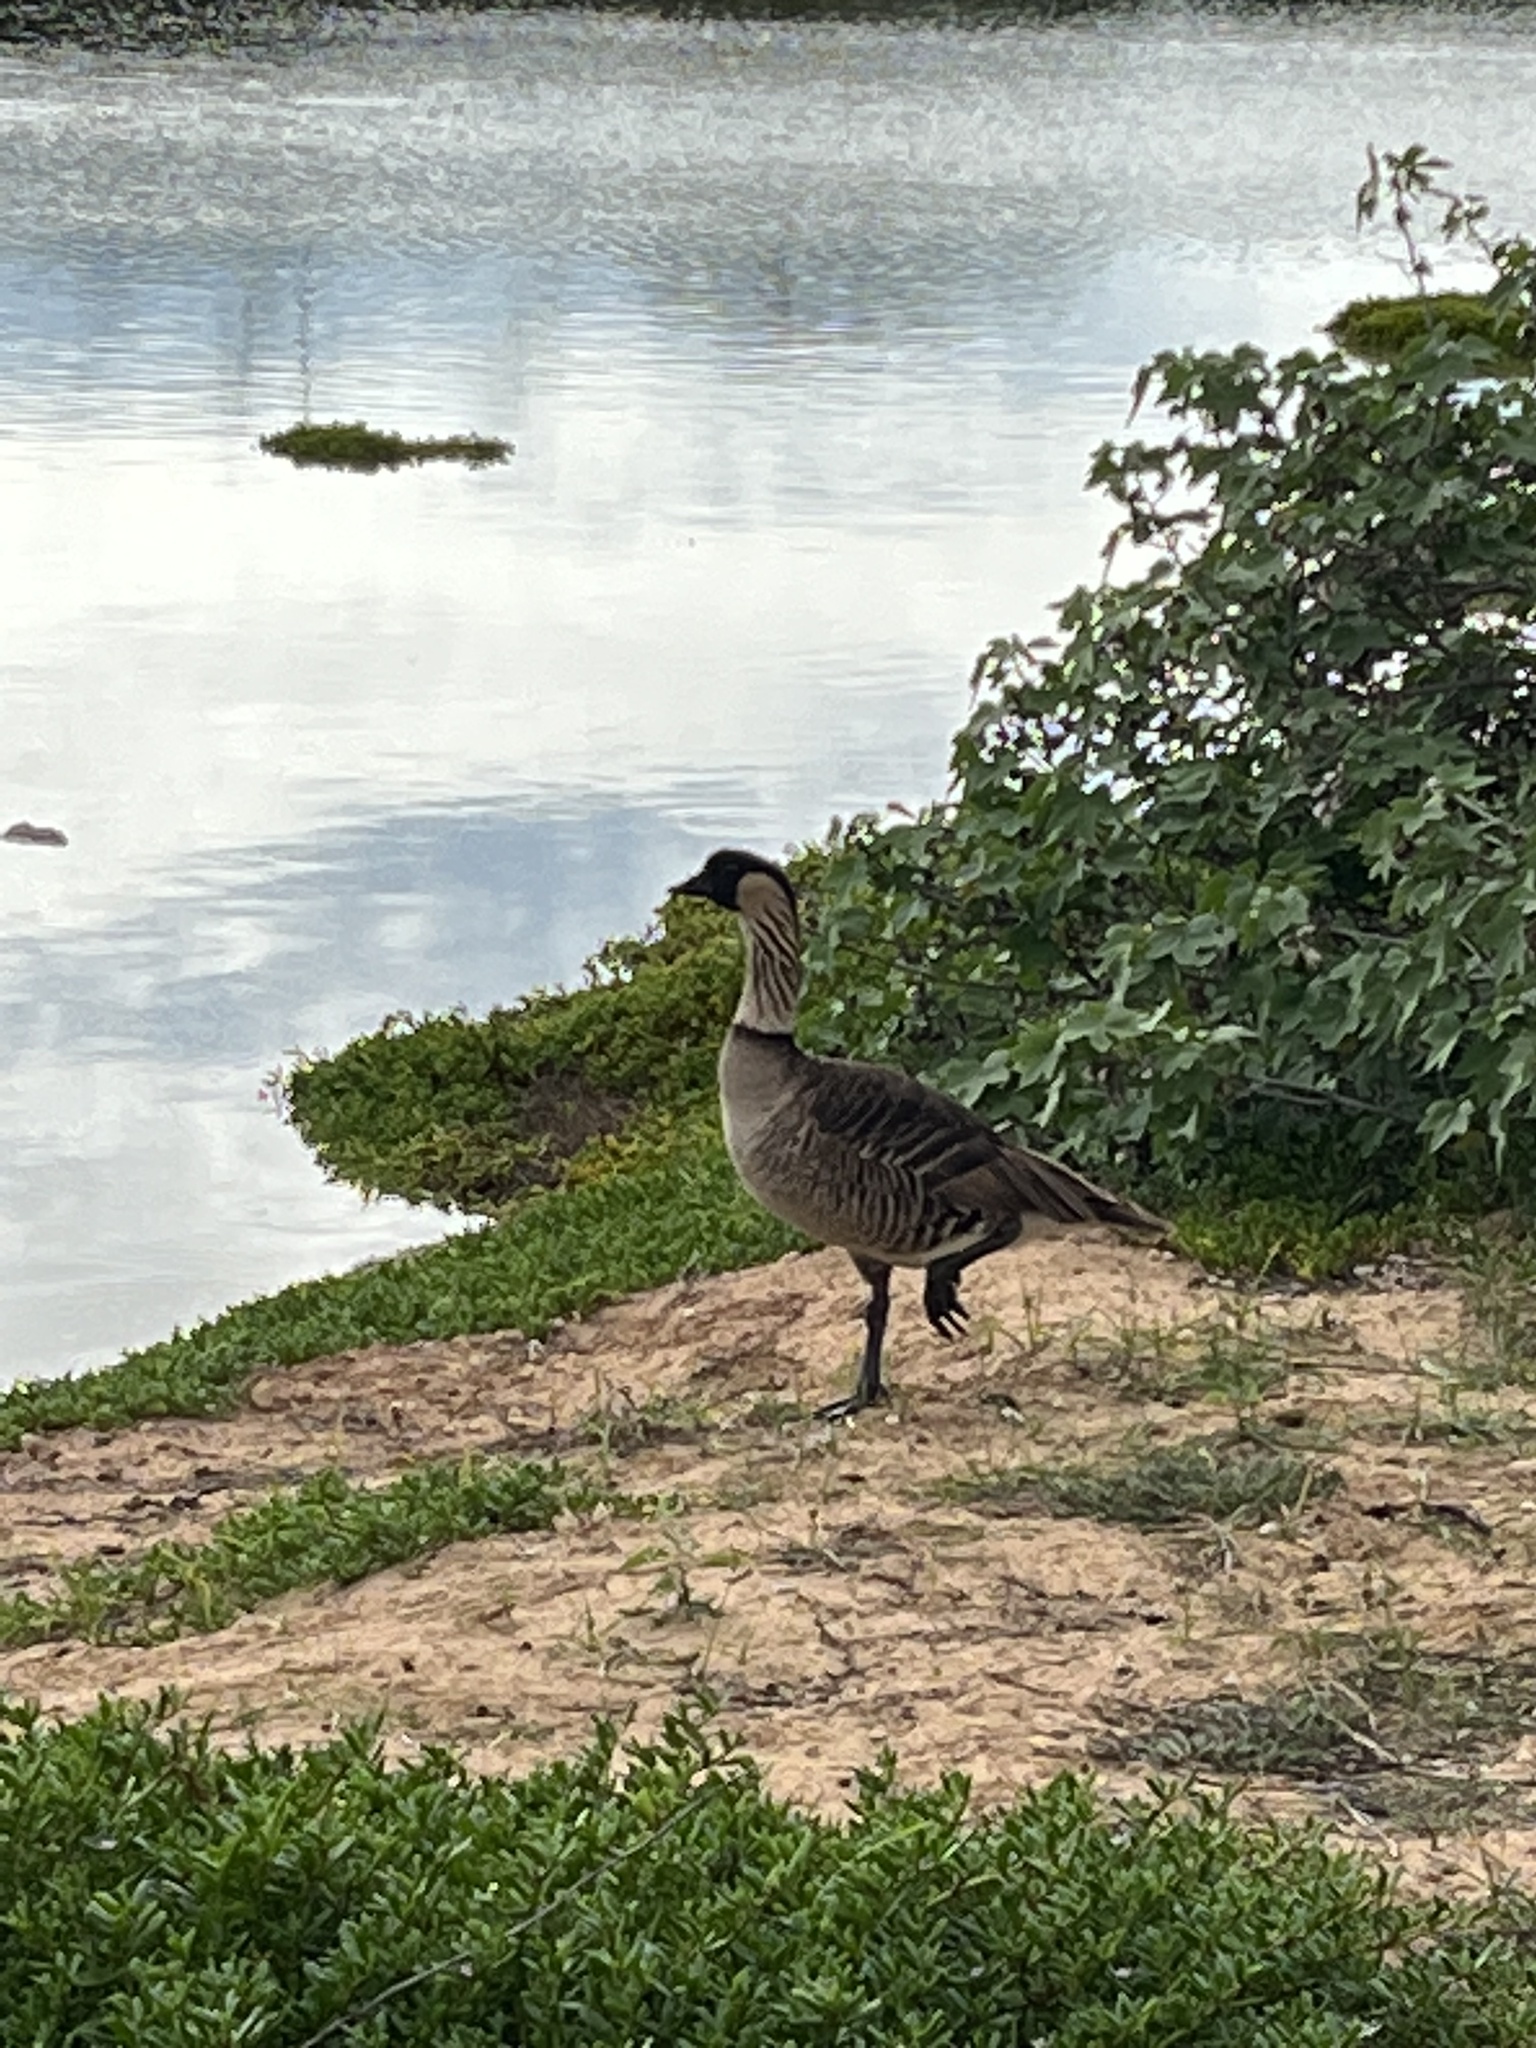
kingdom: Animalia
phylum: Chordata
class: Aves
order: Anseriformes
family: Anatidae
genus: Branta
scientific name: Branta sandvicensis
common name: Nene
